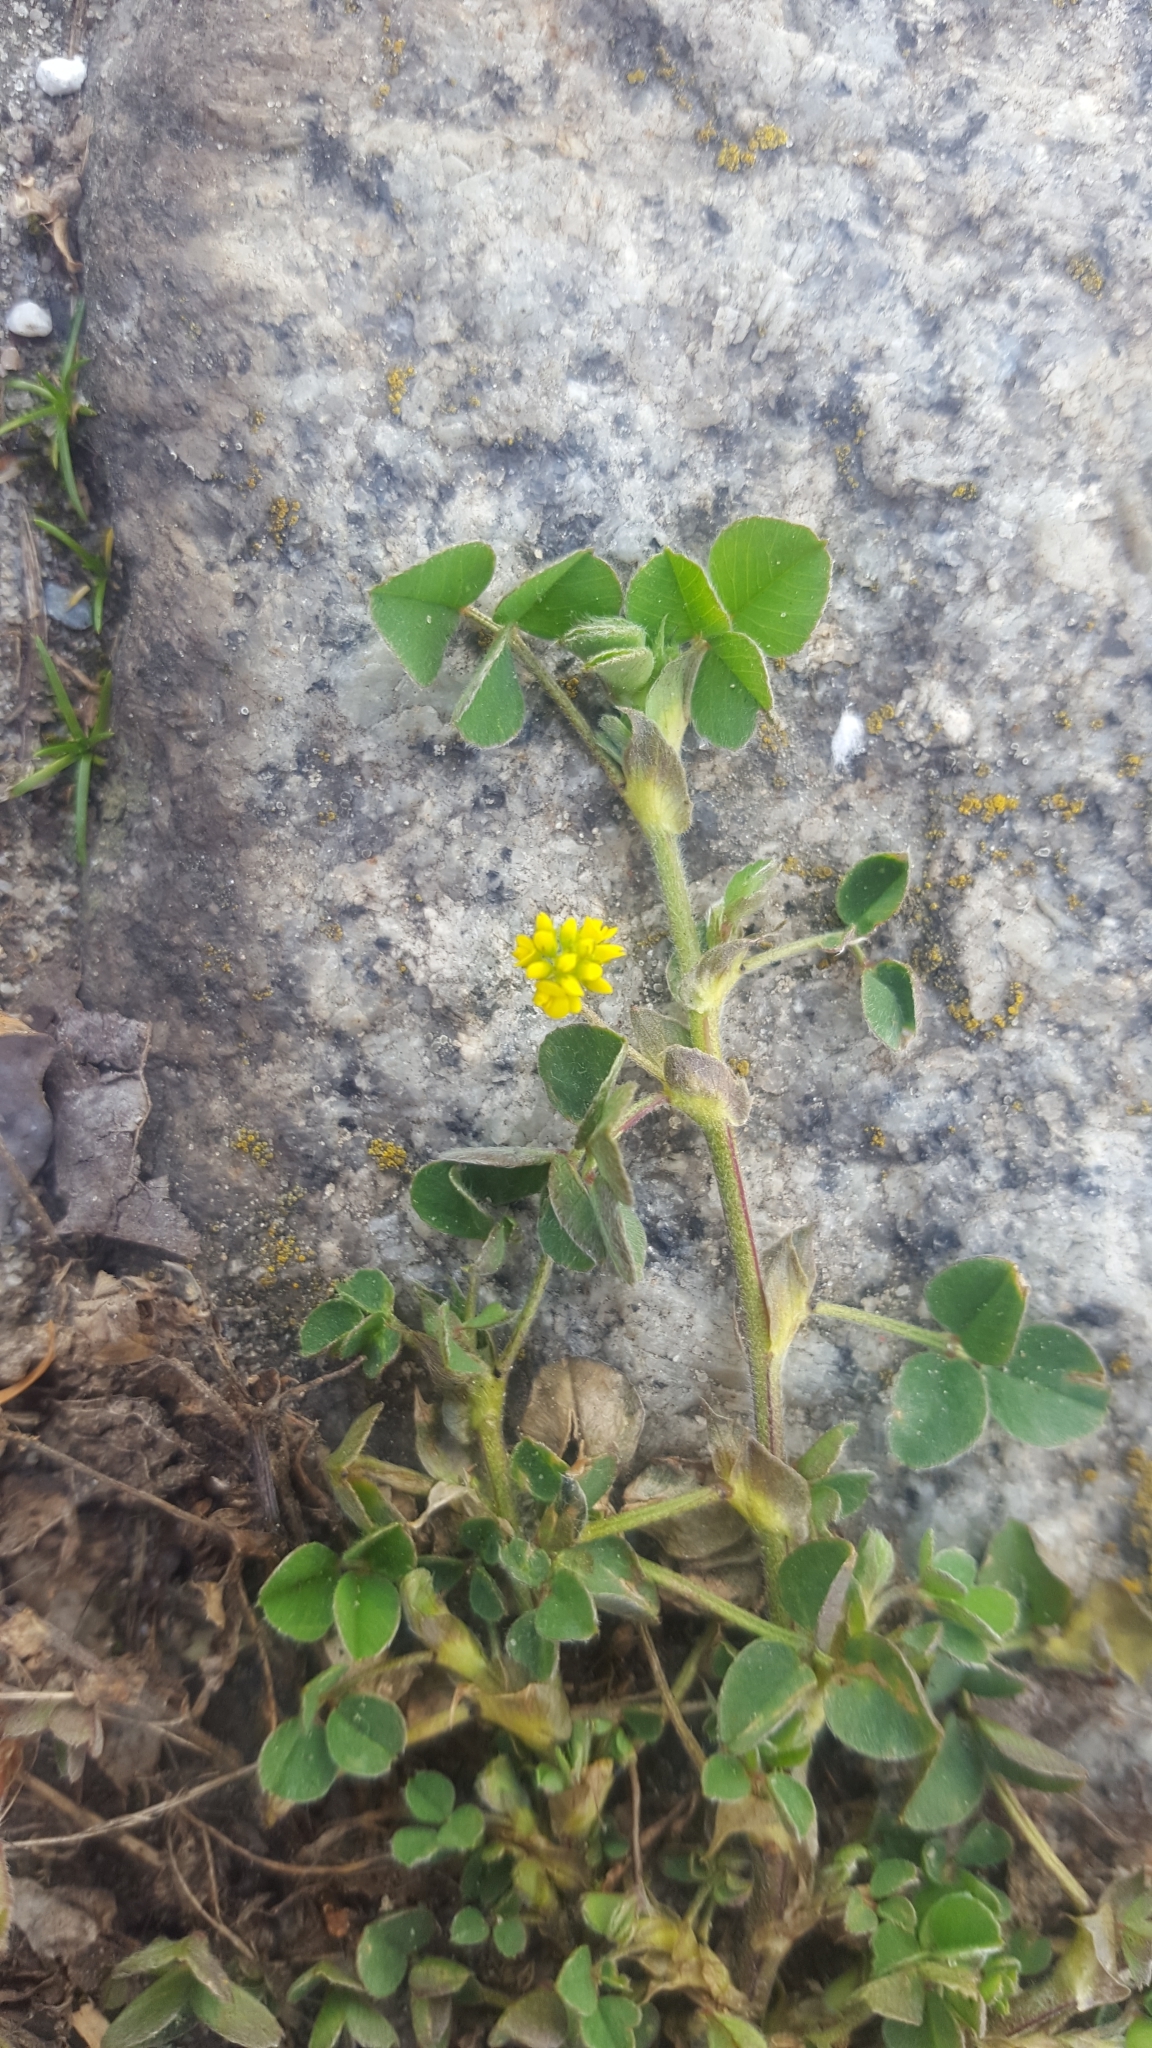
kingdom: Plantae
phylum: Tracheophyta
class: Magnoliopsida
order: Fabales
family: Fabaceae
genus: Medicago
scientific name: Medicago lupulina
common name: Black medick
